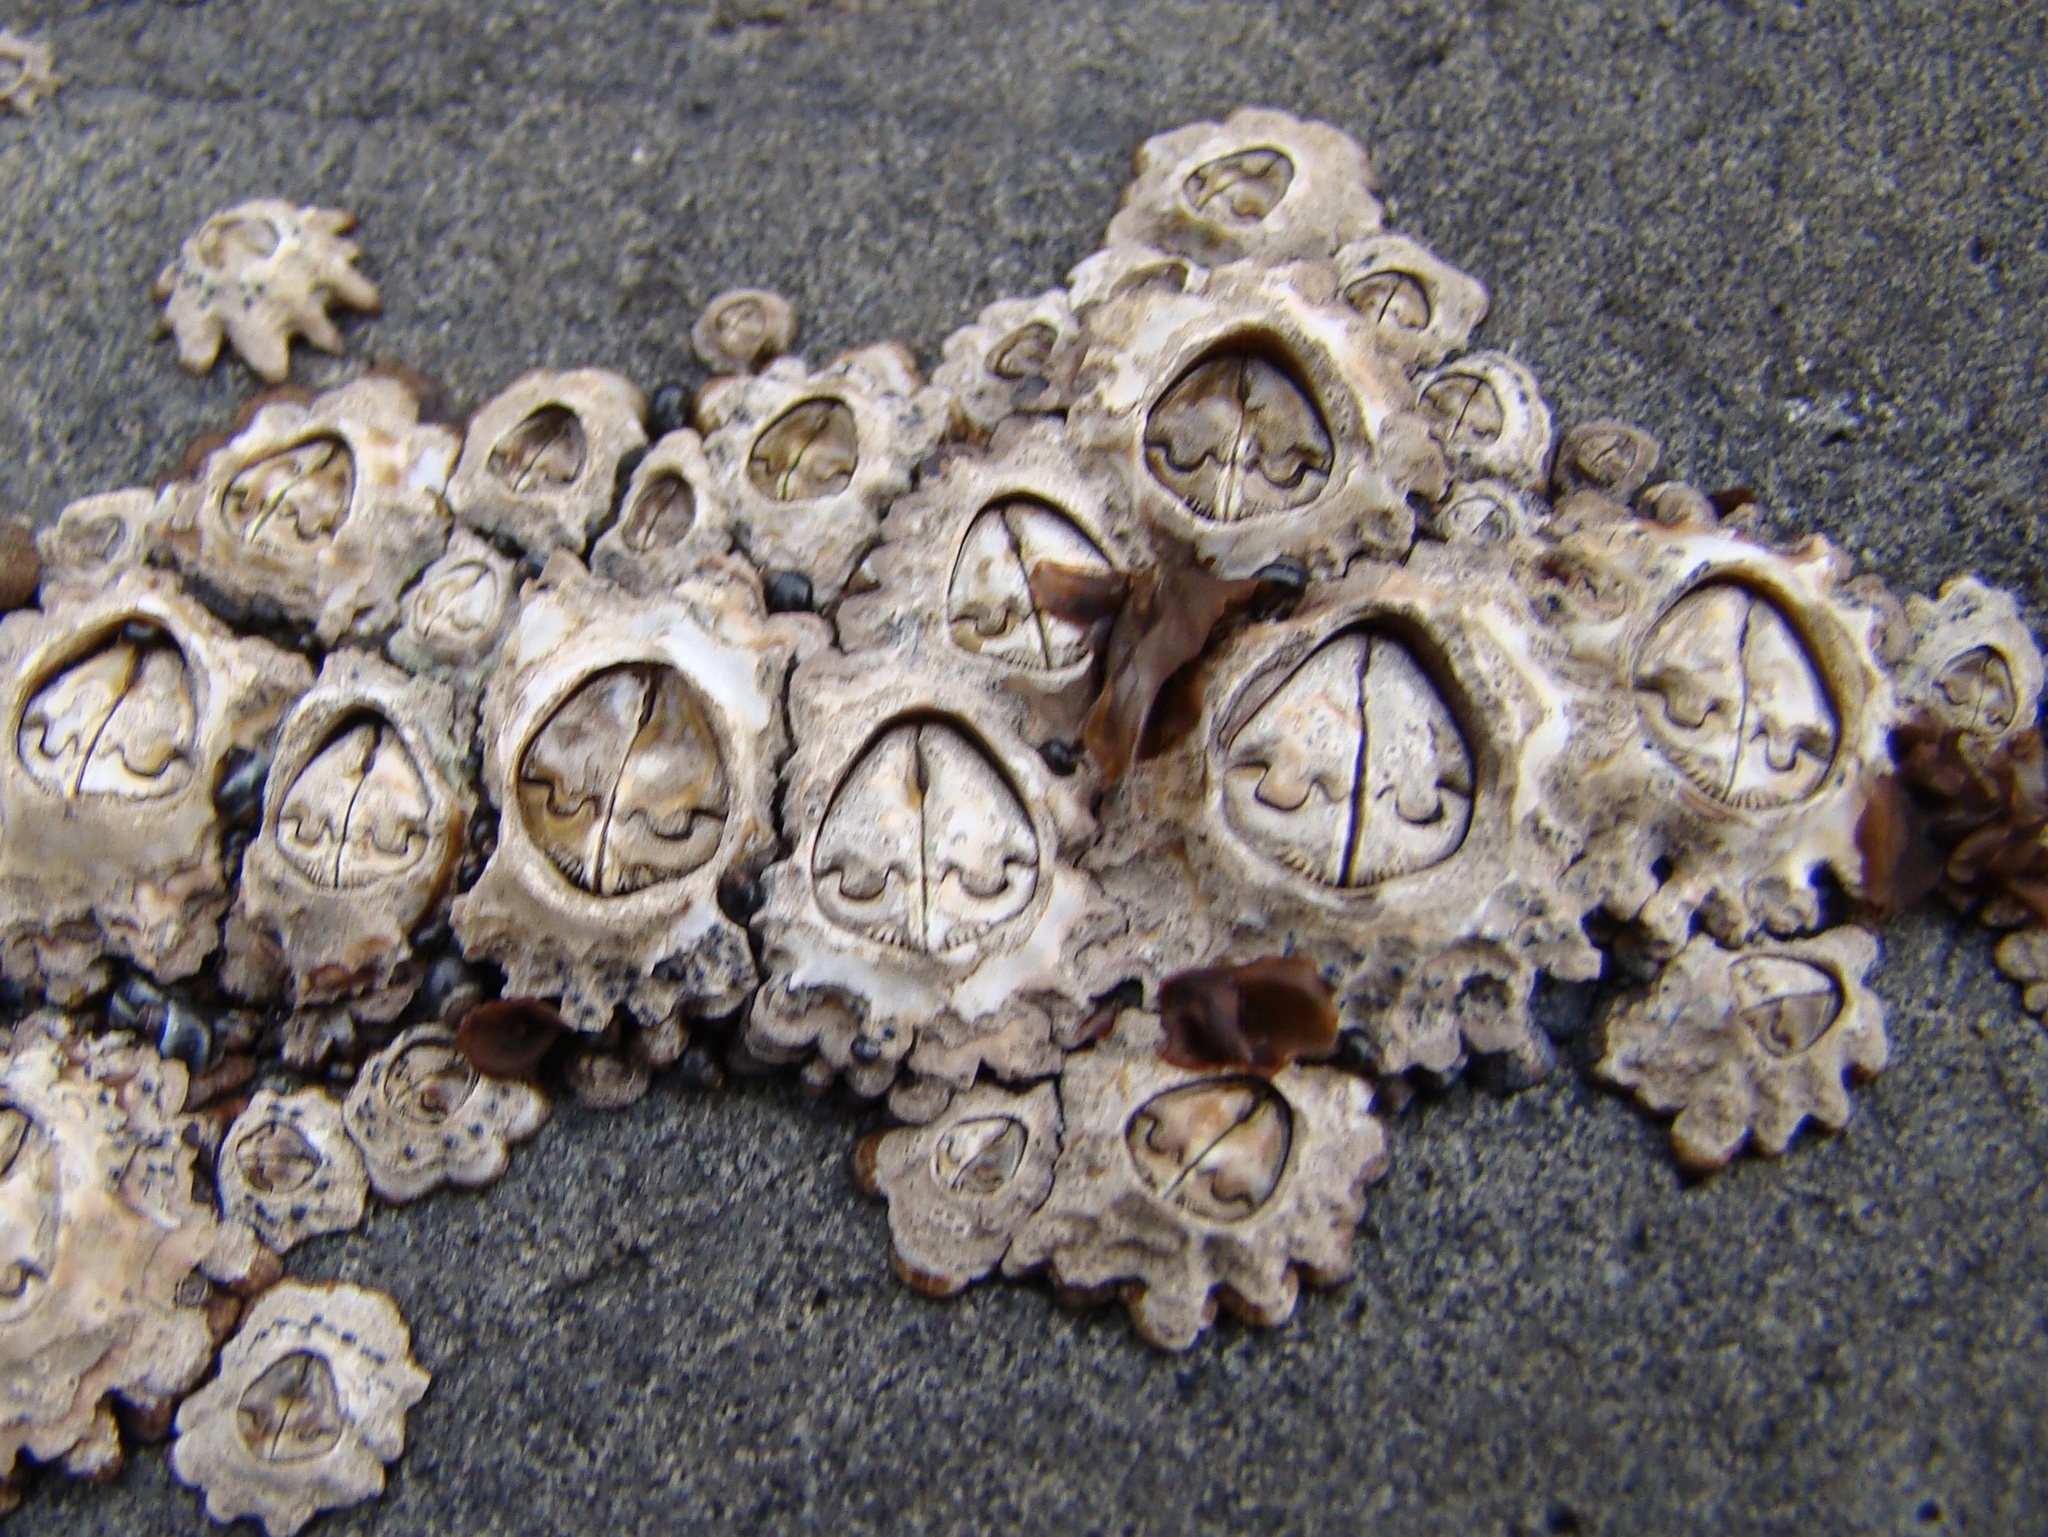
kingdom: Animalia
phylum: Arthropoda
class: Maxillopoda
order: Sessilia
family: Chthamalidae
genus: Chamaesipho
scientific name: Chamaesipho brunnea
